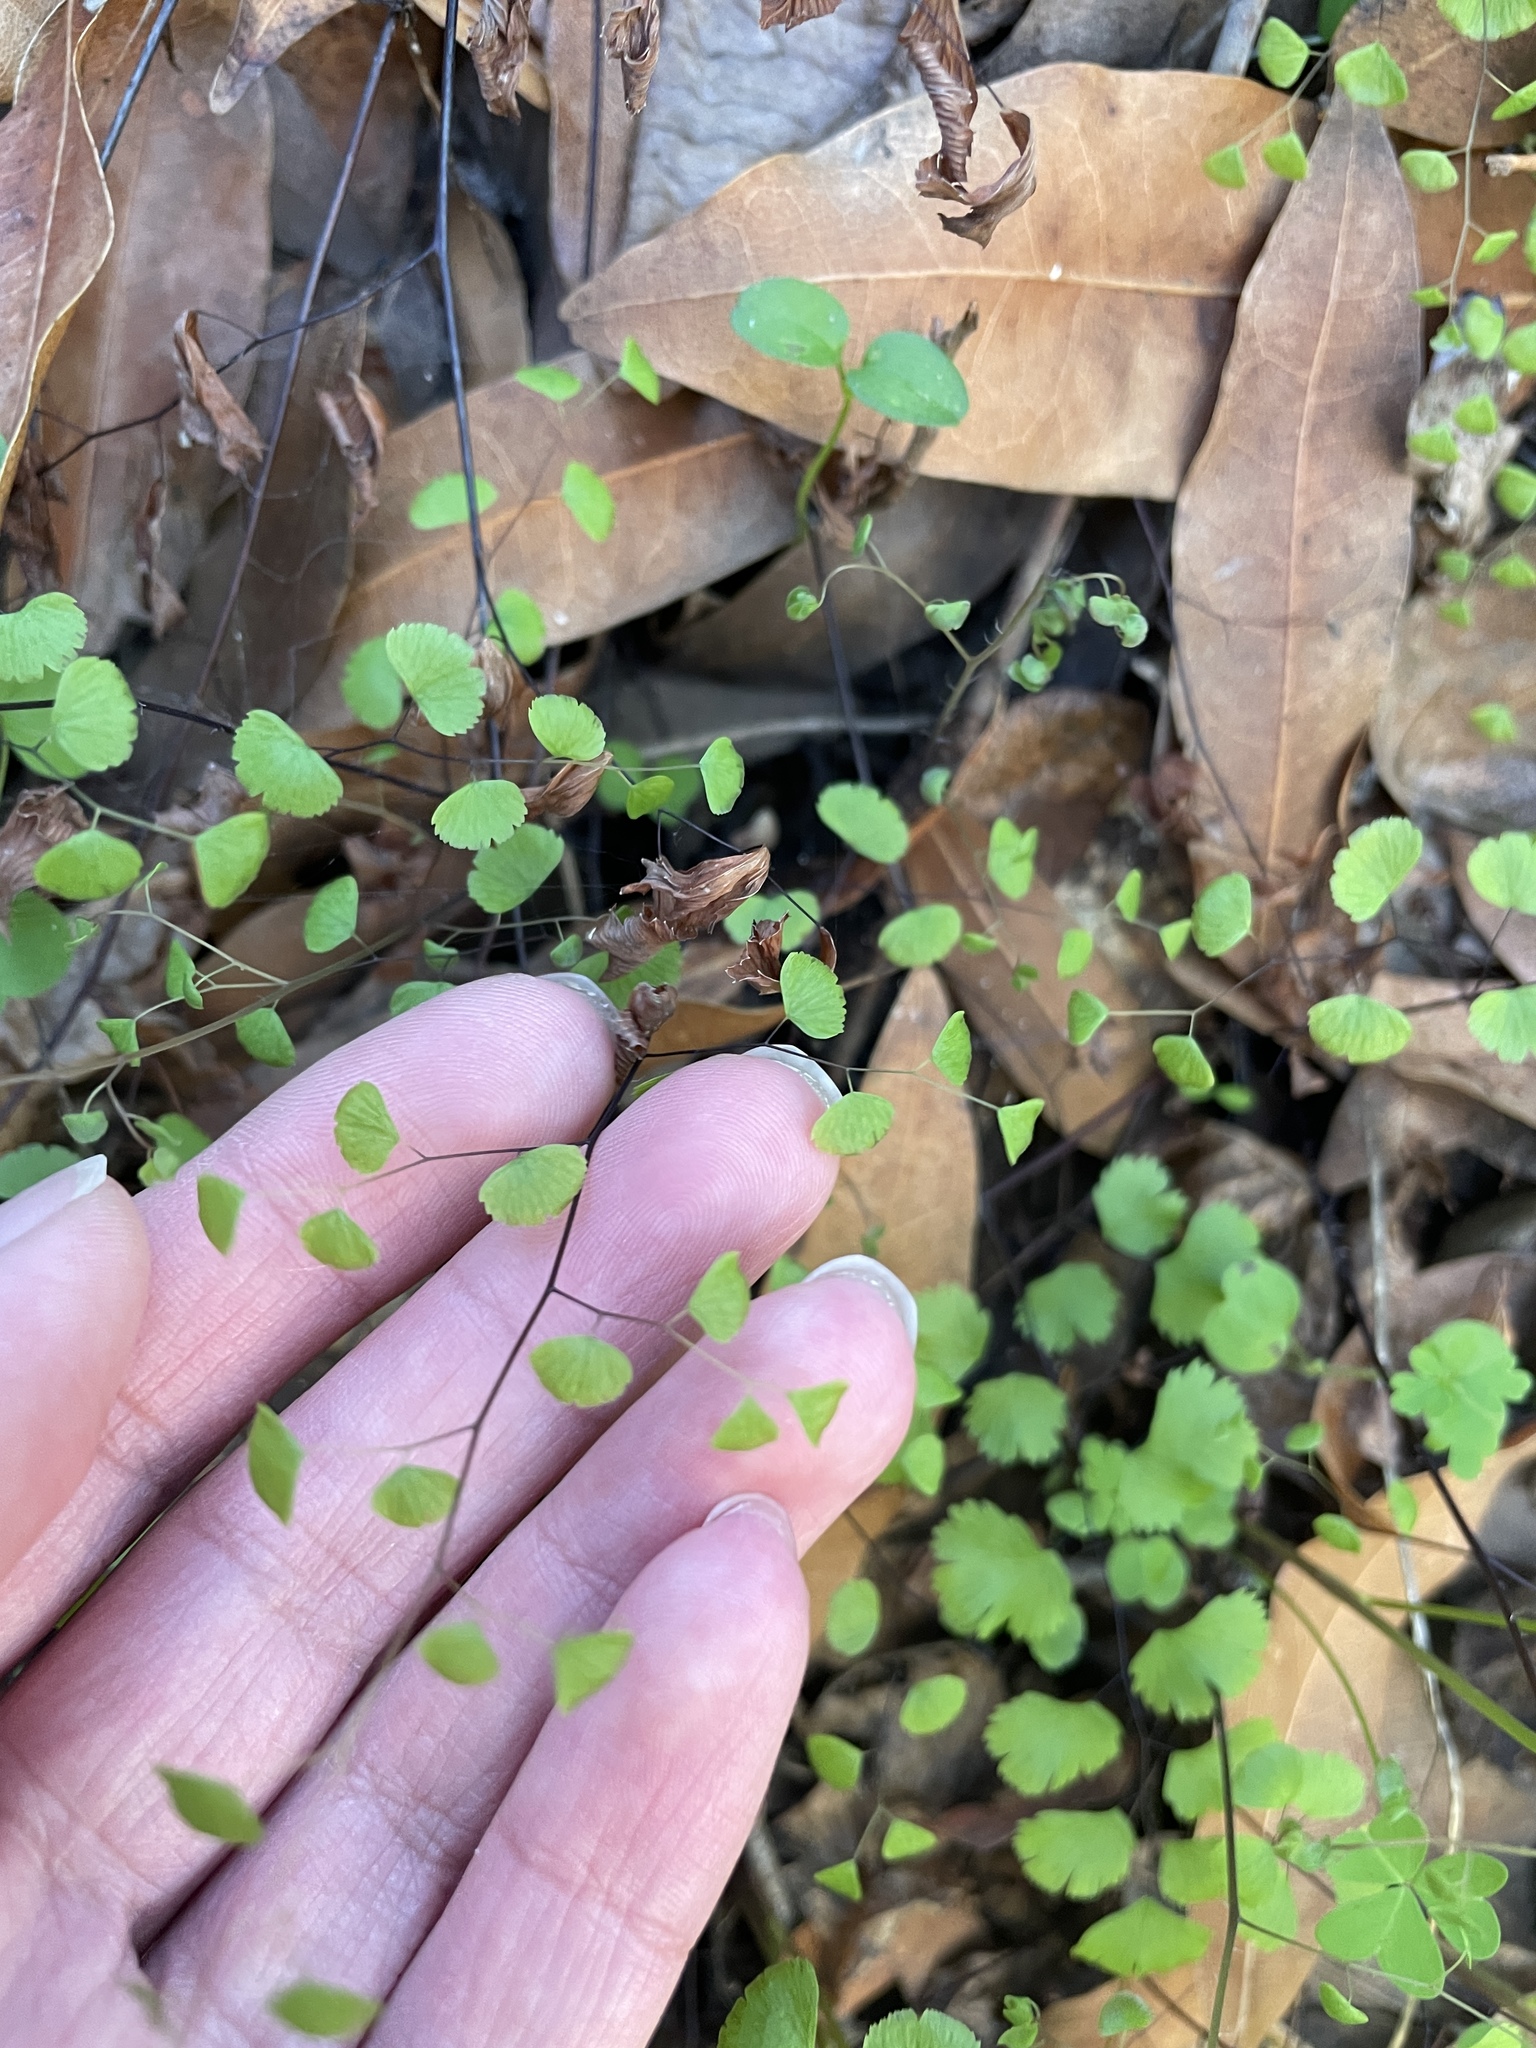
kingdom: Plantae
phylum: Tracheophyta
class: Polypodiopsida
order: Polypodiales
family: Pteridaceae
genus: Adiantum
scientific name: Adiantum jordanii
